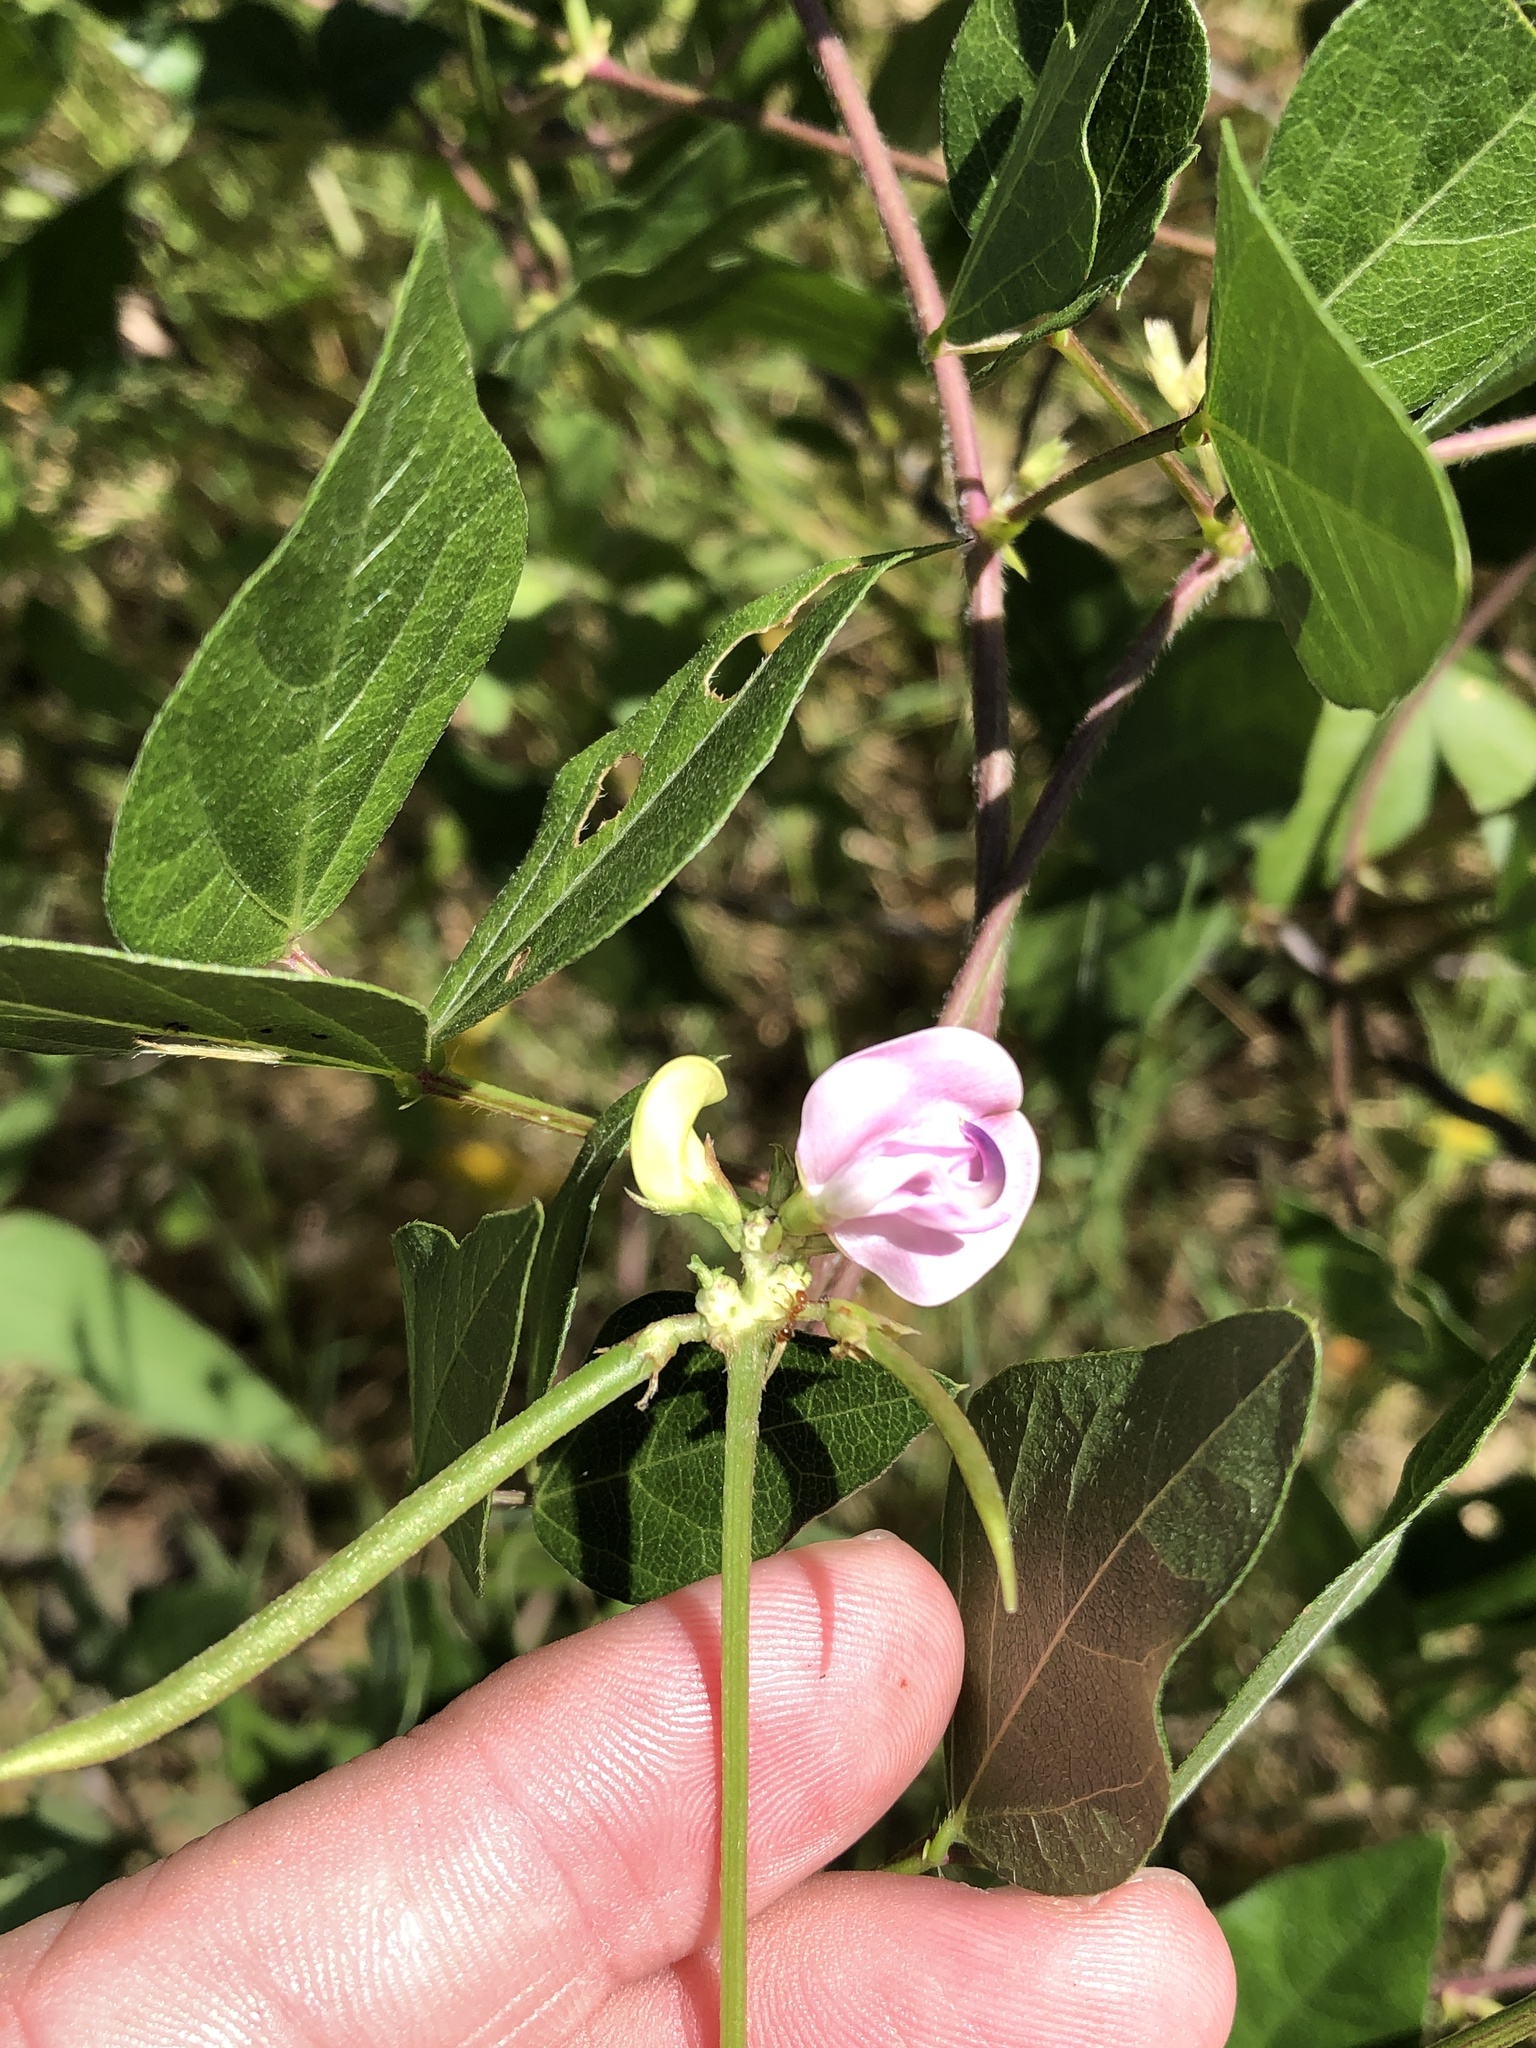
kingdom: Plantae
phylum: Tracheophyta
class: Magnoliopsida
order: Fabales
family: Fabaceae
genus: Strophostyles
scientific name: Strophostyles helvola
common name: Trailing wild bean
